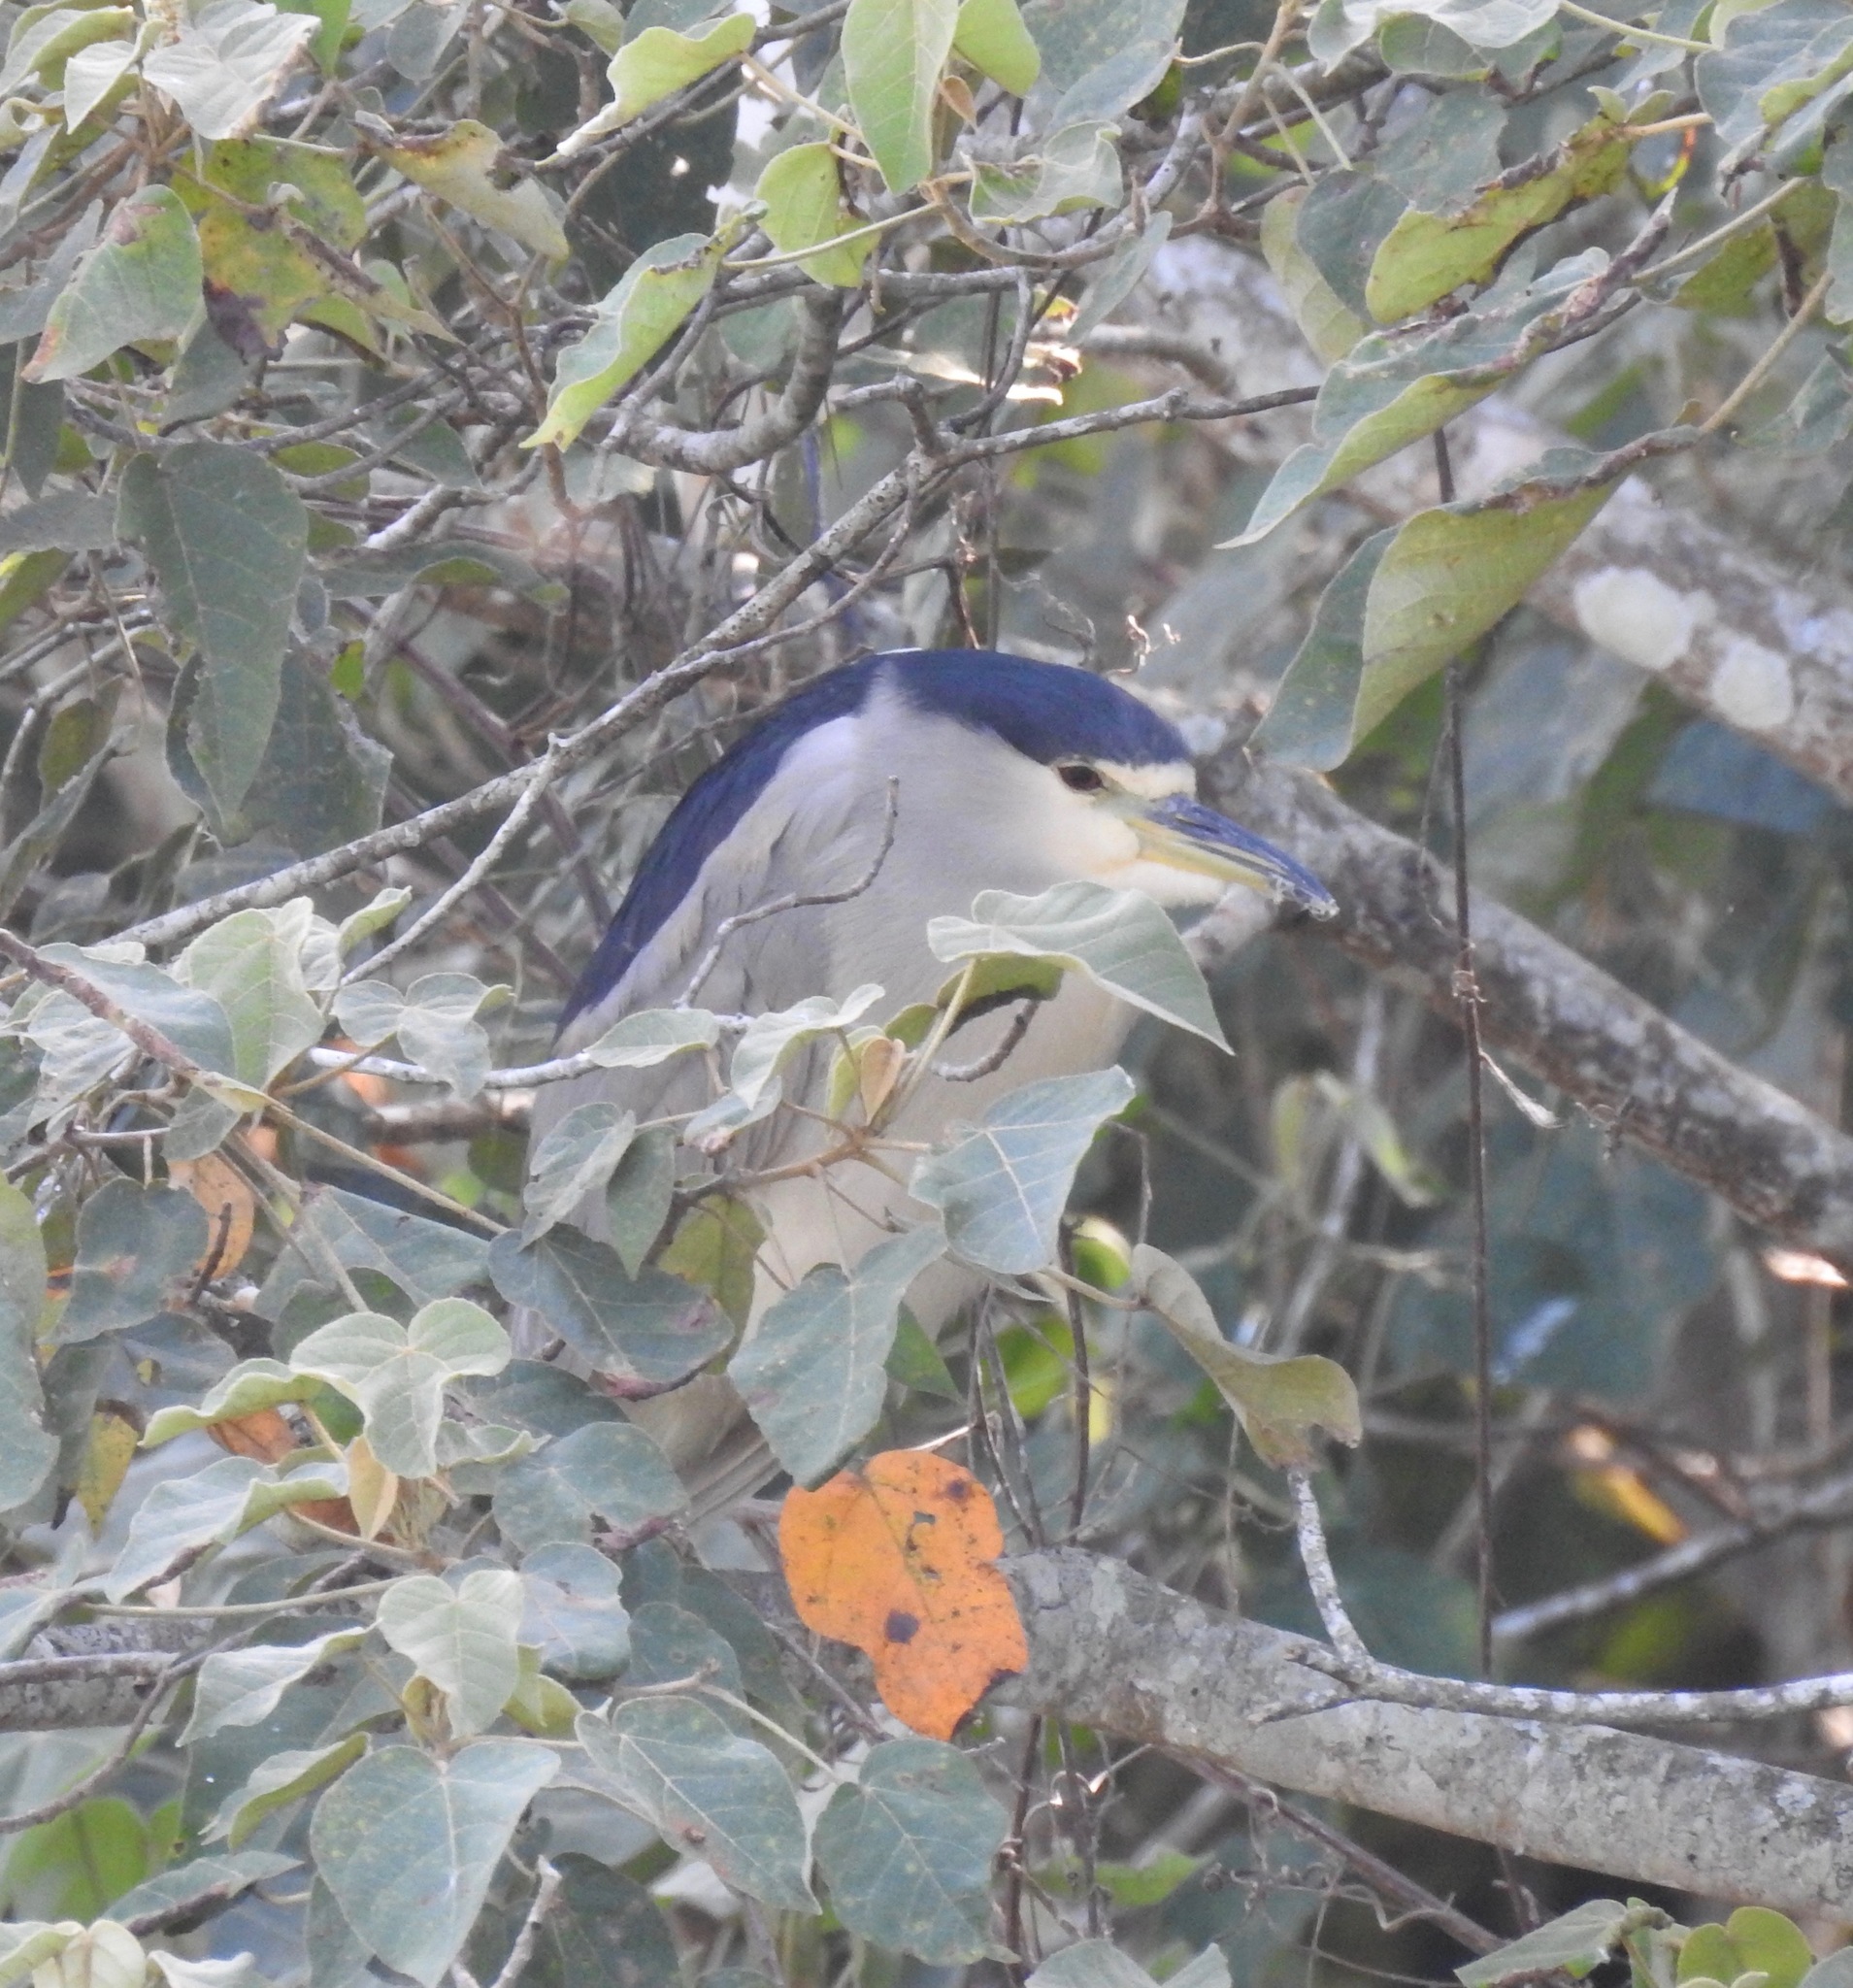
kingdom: Animalia
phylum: Chordata
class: Aves
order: Pelecaniformes
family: Ardeidae
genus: Nycticorax
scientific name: Nycticorax nycticorax
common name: Black-crowned night heron
